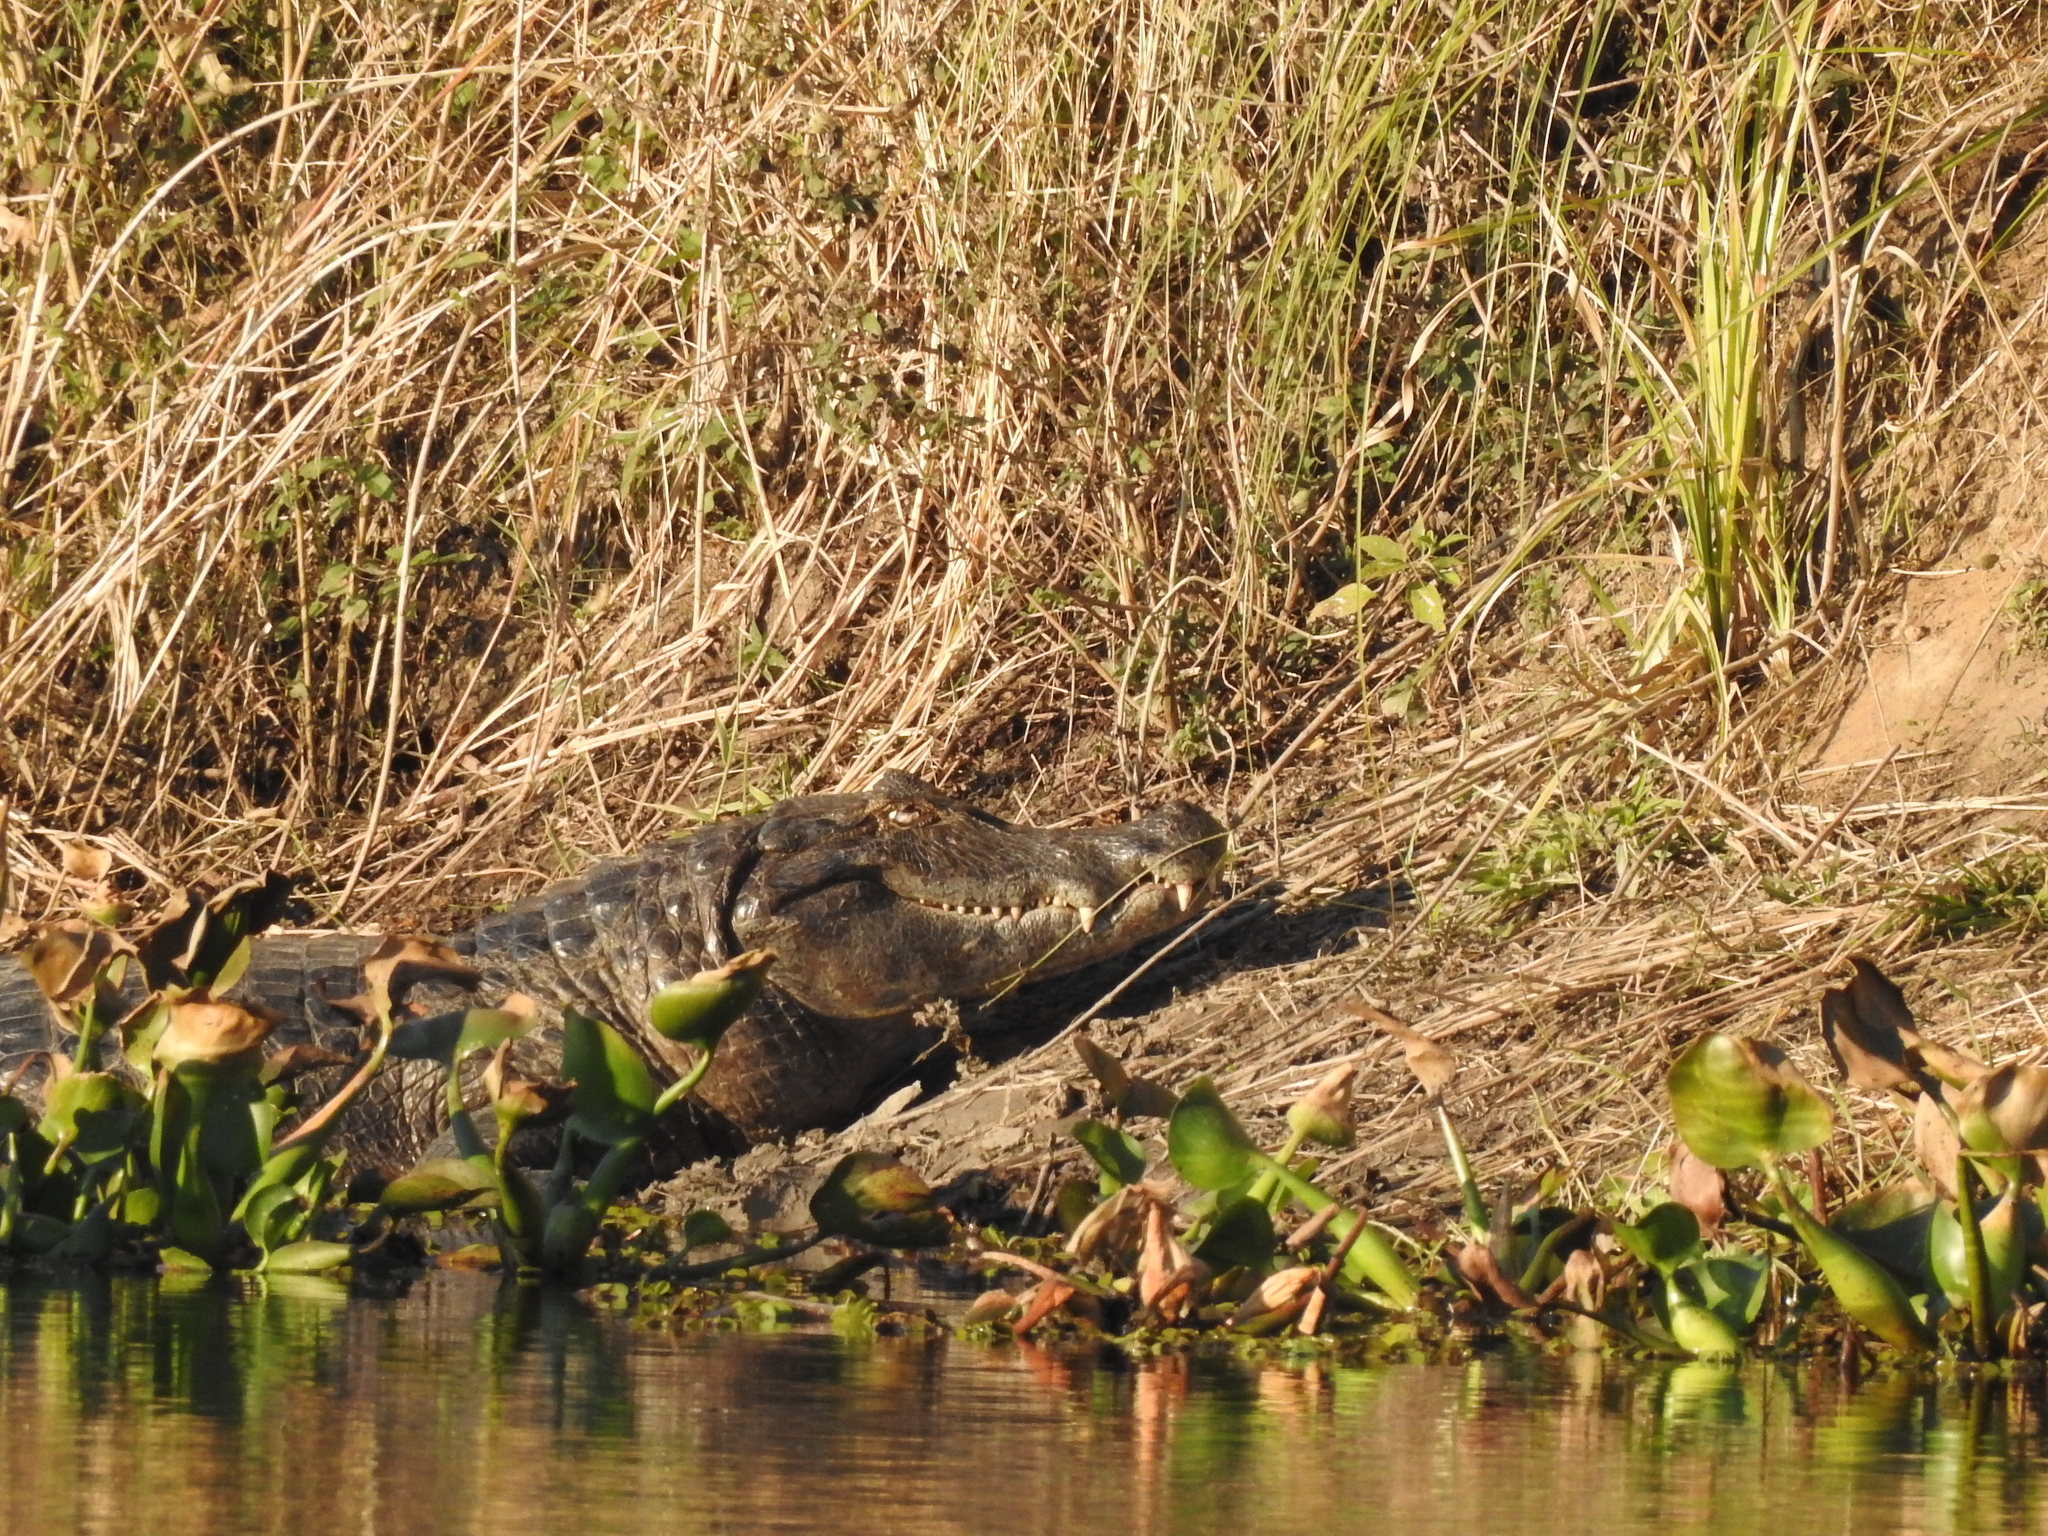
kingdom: Animalia
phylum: Chordata
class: Crocodylia
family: Alligatoridae
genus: Caiman
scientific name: Caiman latirostris
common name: Broad-snouted caiman
